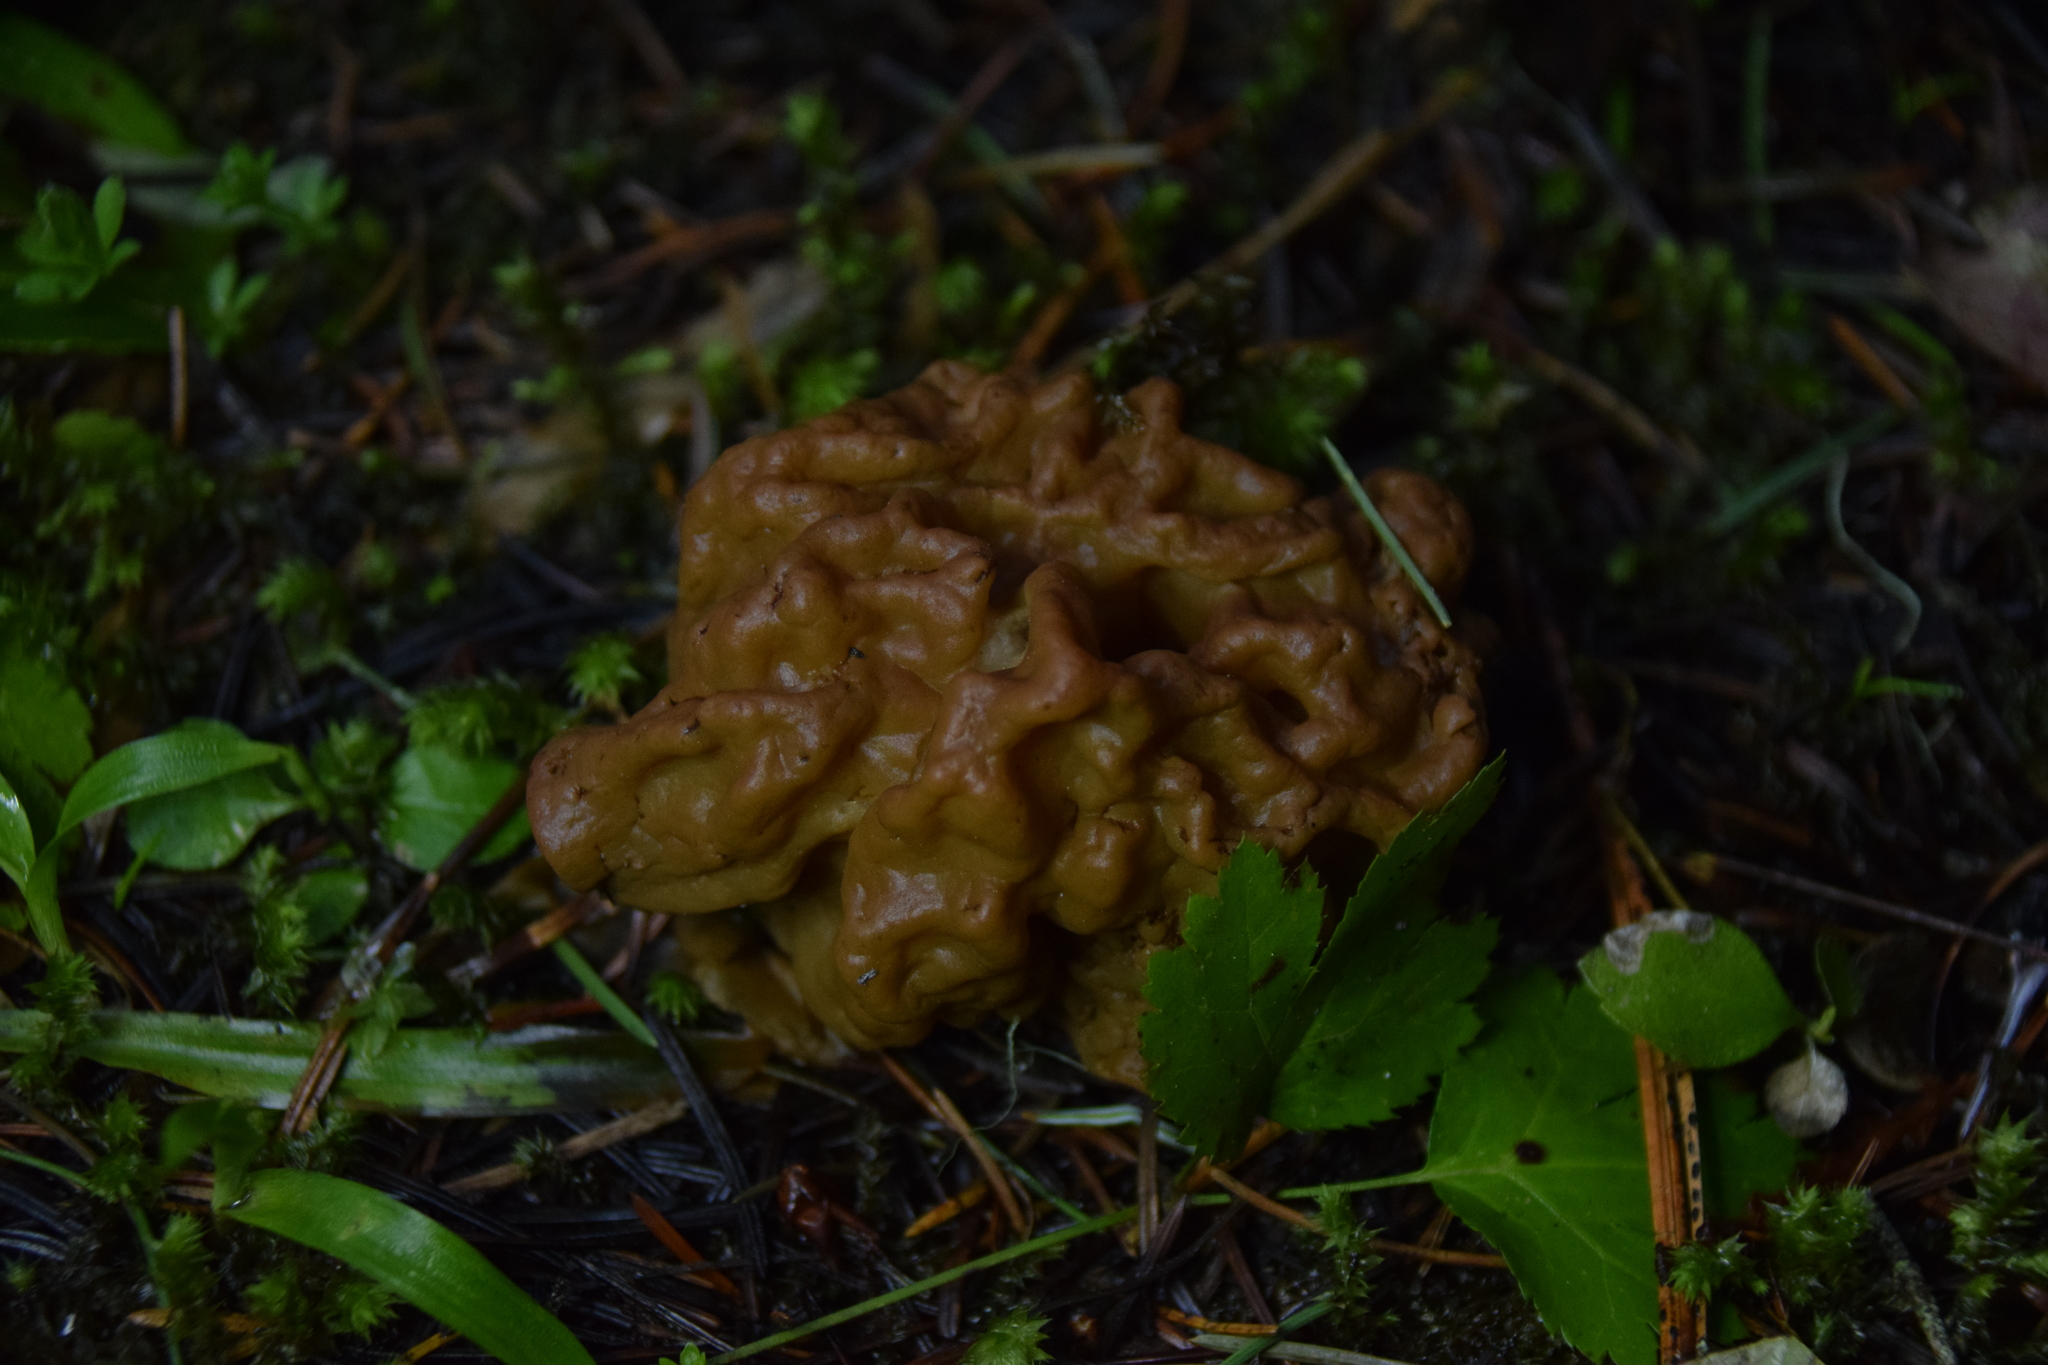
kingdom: Fungi
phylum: Ascomycota
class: Pezizomycetes
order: Pezizales
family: Discinaceae
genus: Discina
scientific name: Discina montana
